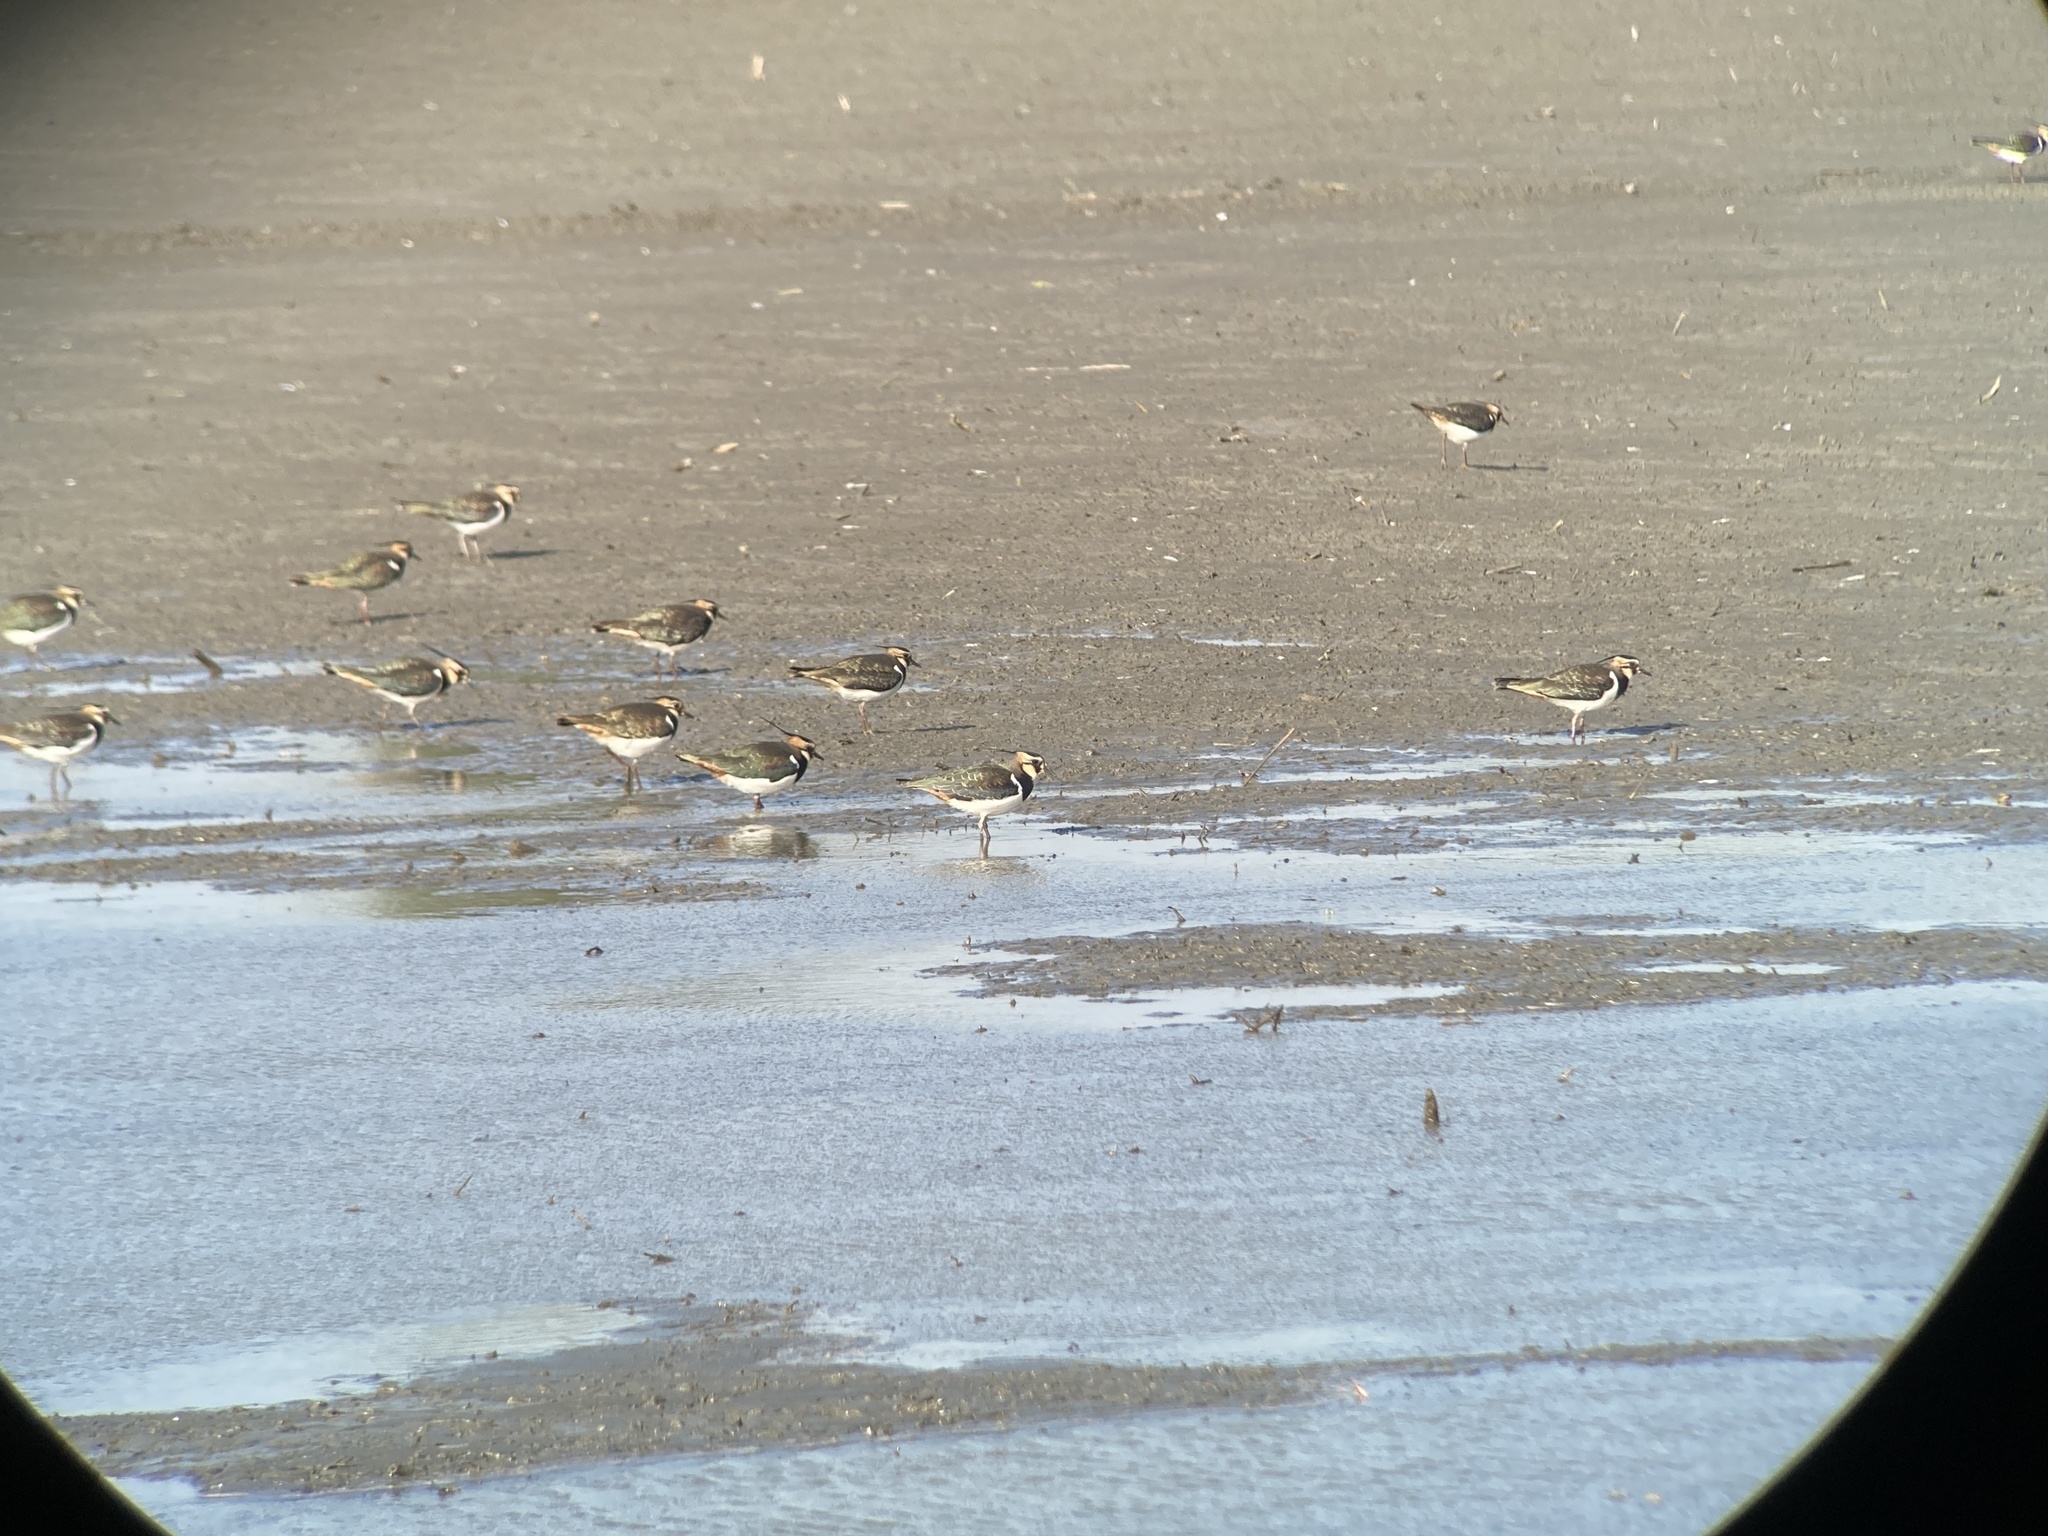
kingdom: Animalia
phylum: Chordata
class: Aves
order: Charadriiformes
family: Charadriidae
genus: Vanellus
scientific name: Vanellus vanellus
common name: Northern lapwing
